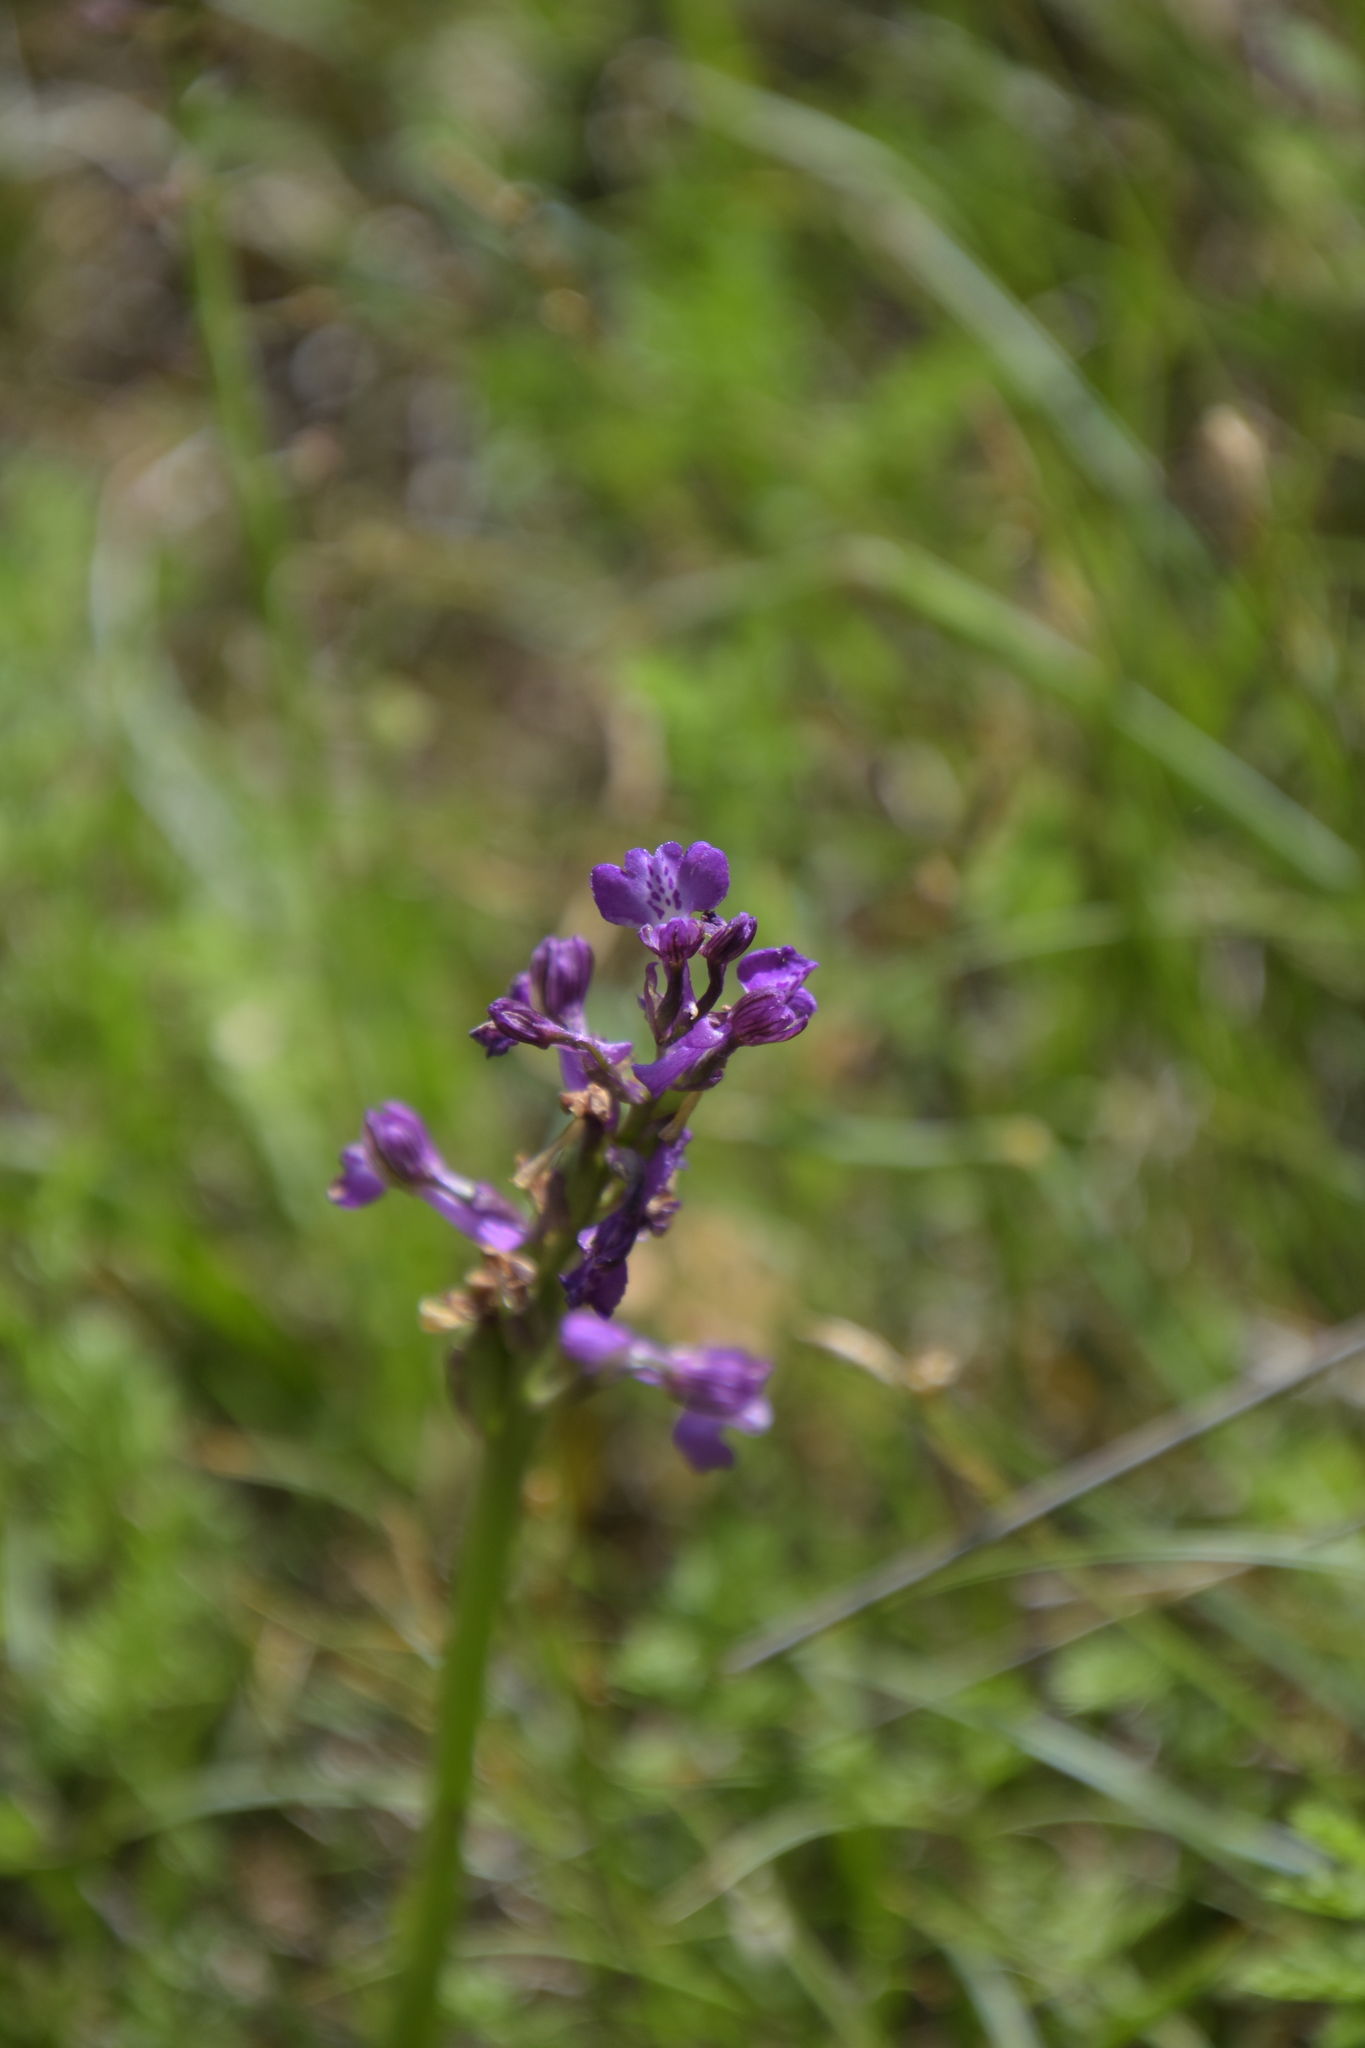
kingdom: Plantae
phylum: Tracheophyta
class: Liliopsida
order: Asparagales
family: Orchidaceae
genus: Anacamptis
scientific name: Anacamptis morio
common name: Green-winged orchid
